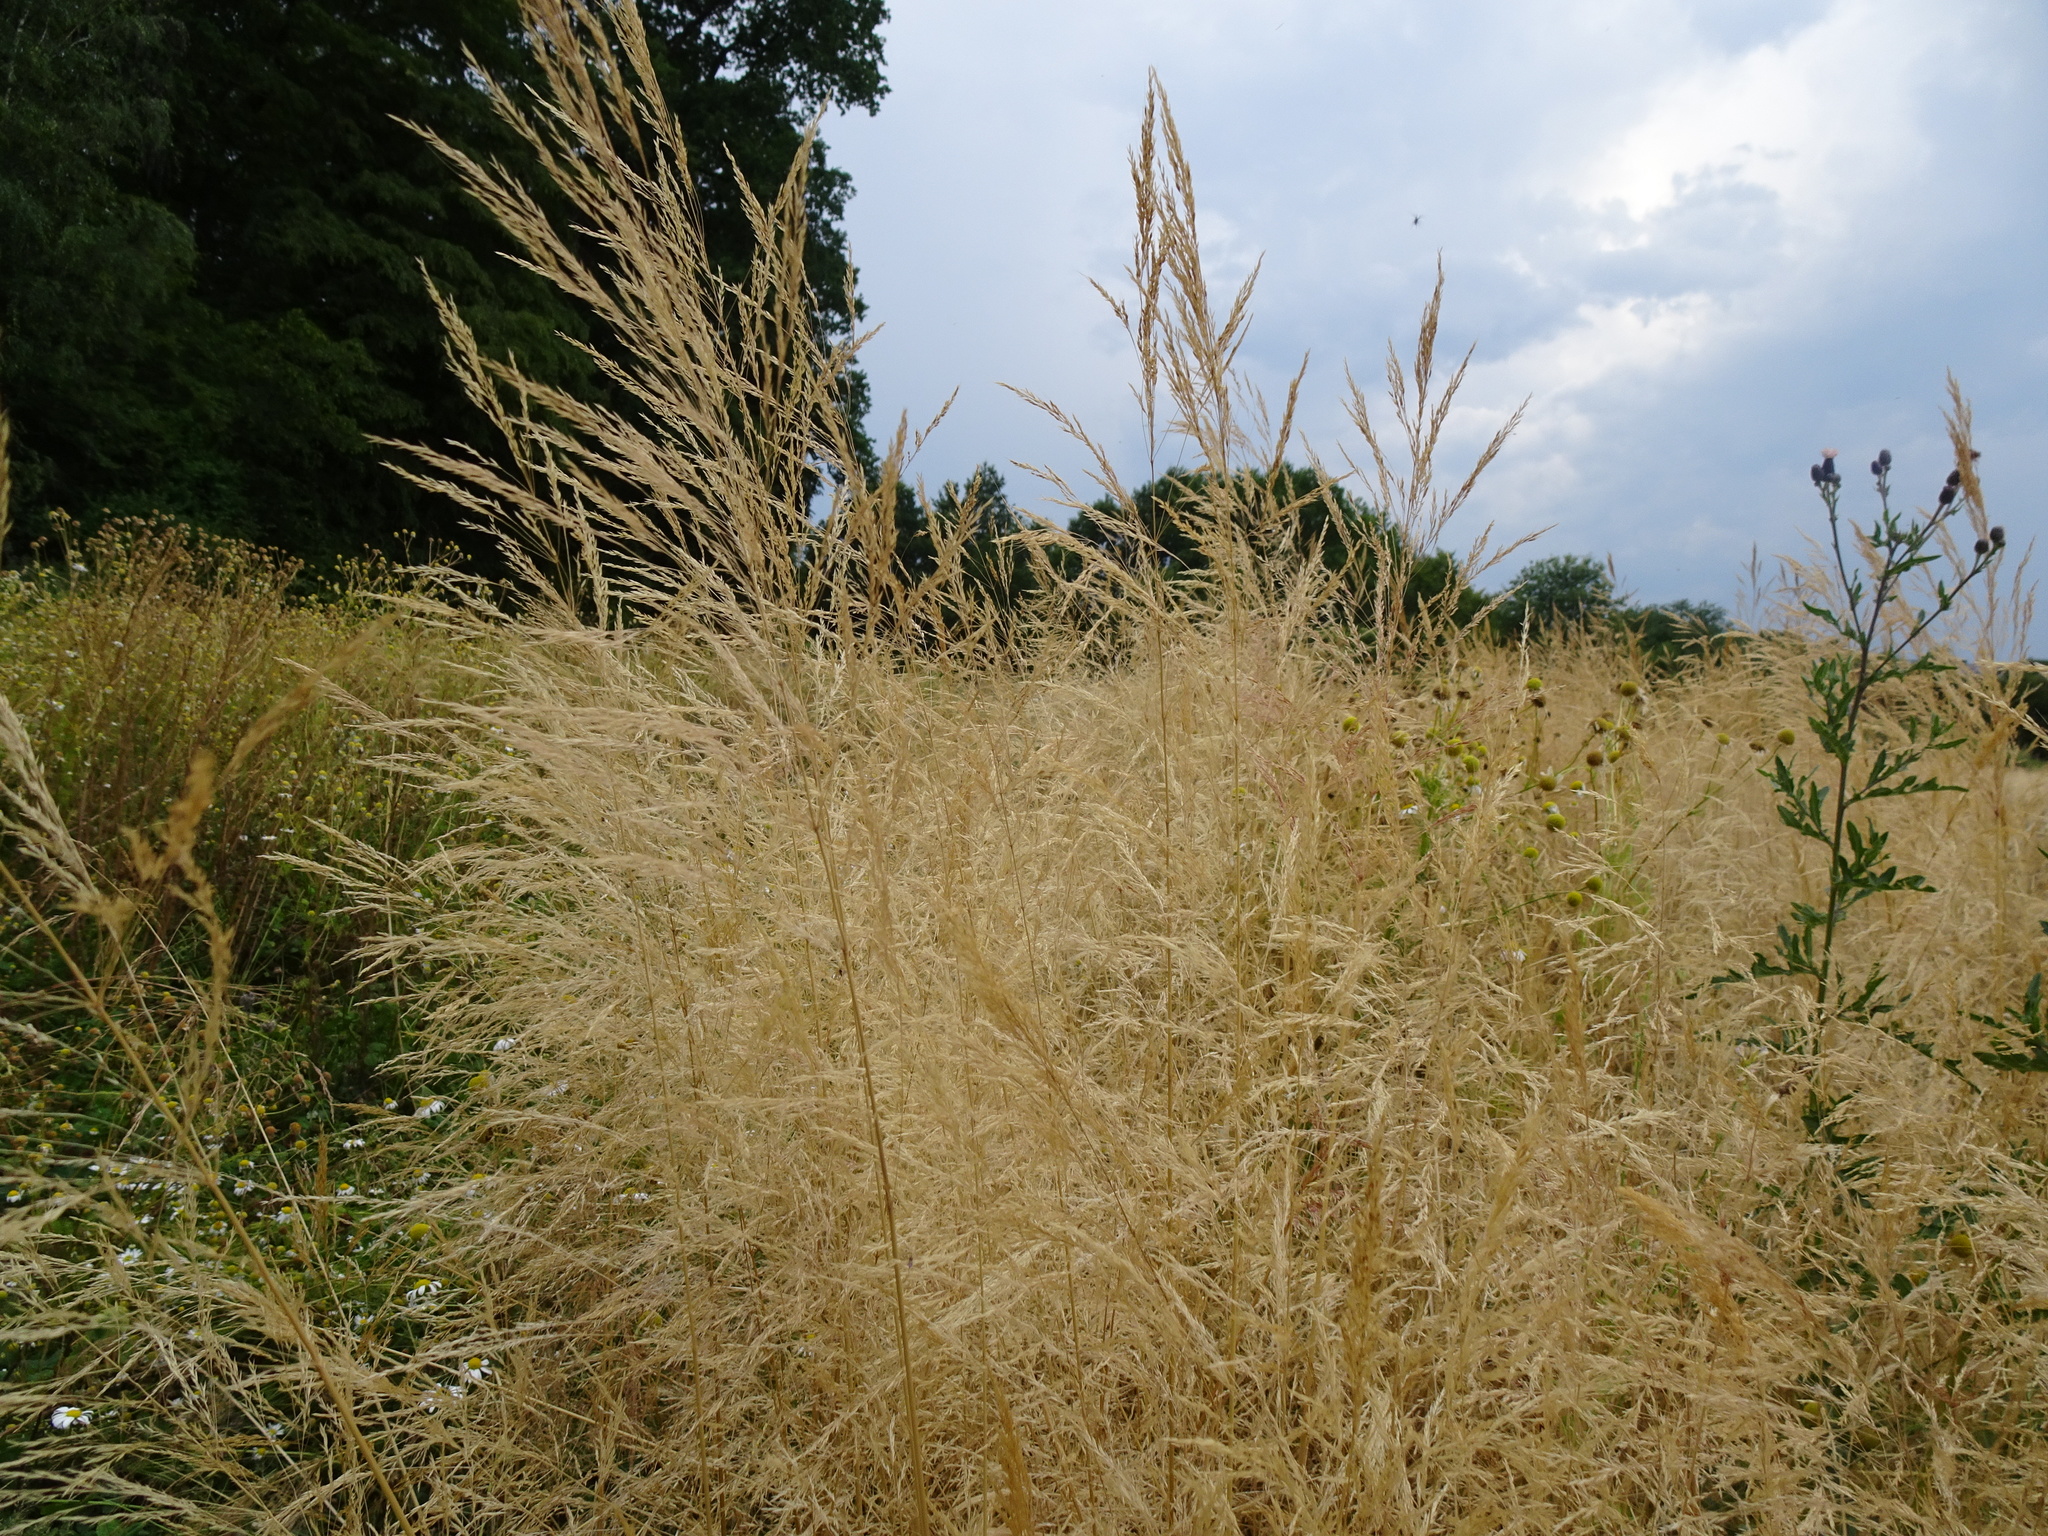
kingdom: Plantae
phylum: Tracheophyta
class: Liliopsida
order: Poales
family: Poaceae
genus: Apera
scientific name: Apera spica-venti
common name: Loose silky-bent
